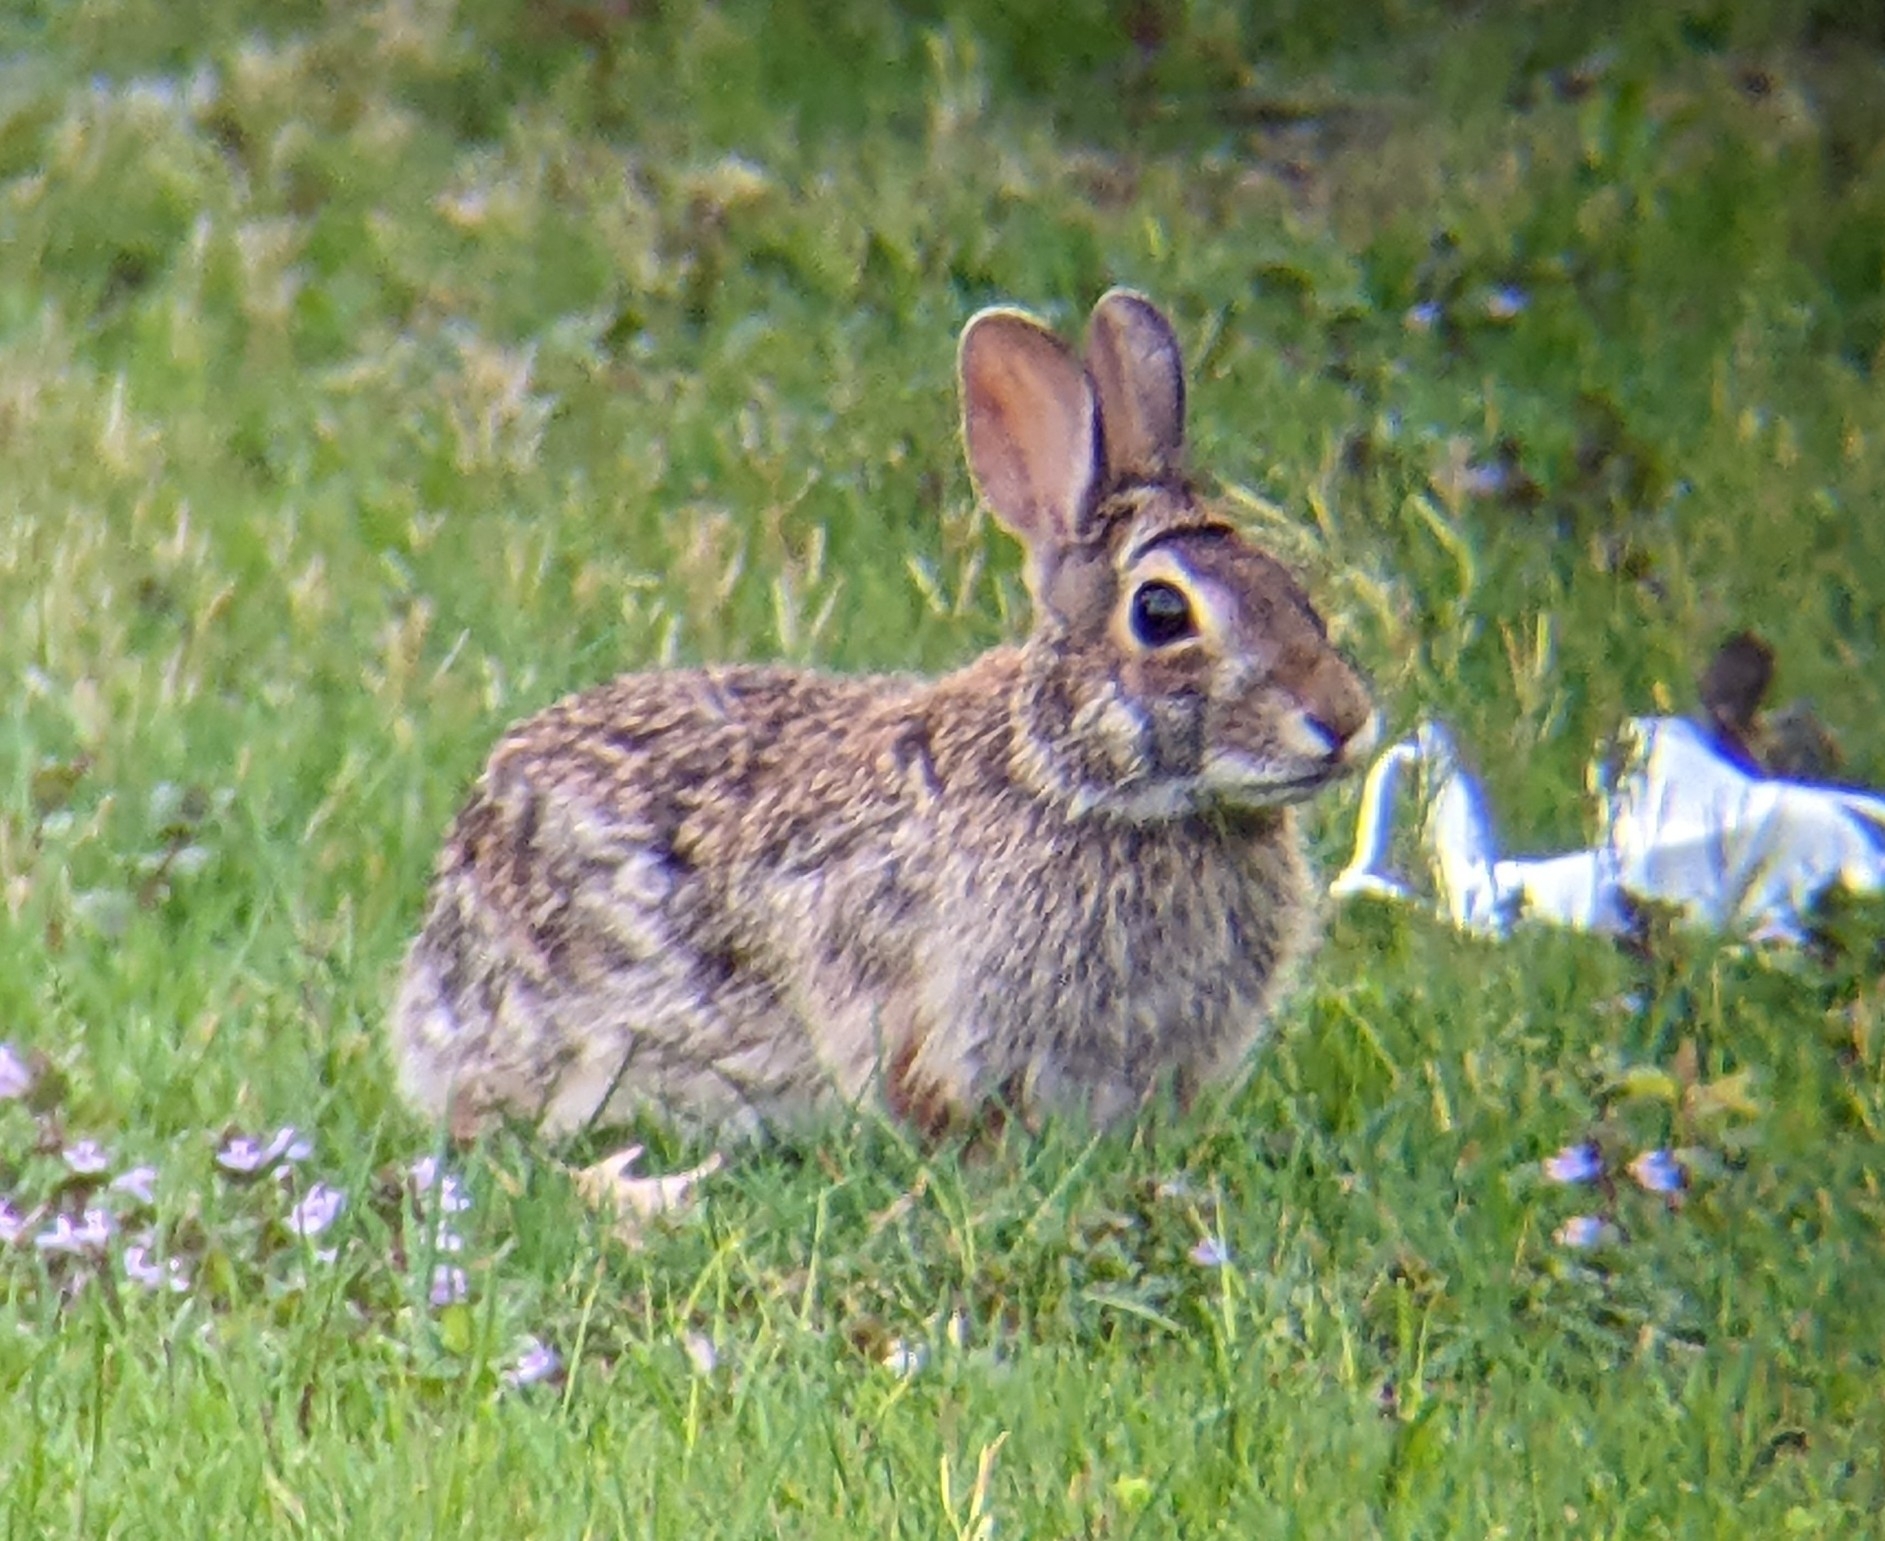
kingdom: Animalia
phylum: Chordata
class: Mammalia
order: Lagomorpha
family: Leporidae
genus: Sylvilagus
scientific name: Sylvilagus floridanus
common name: Eastern cottontail
